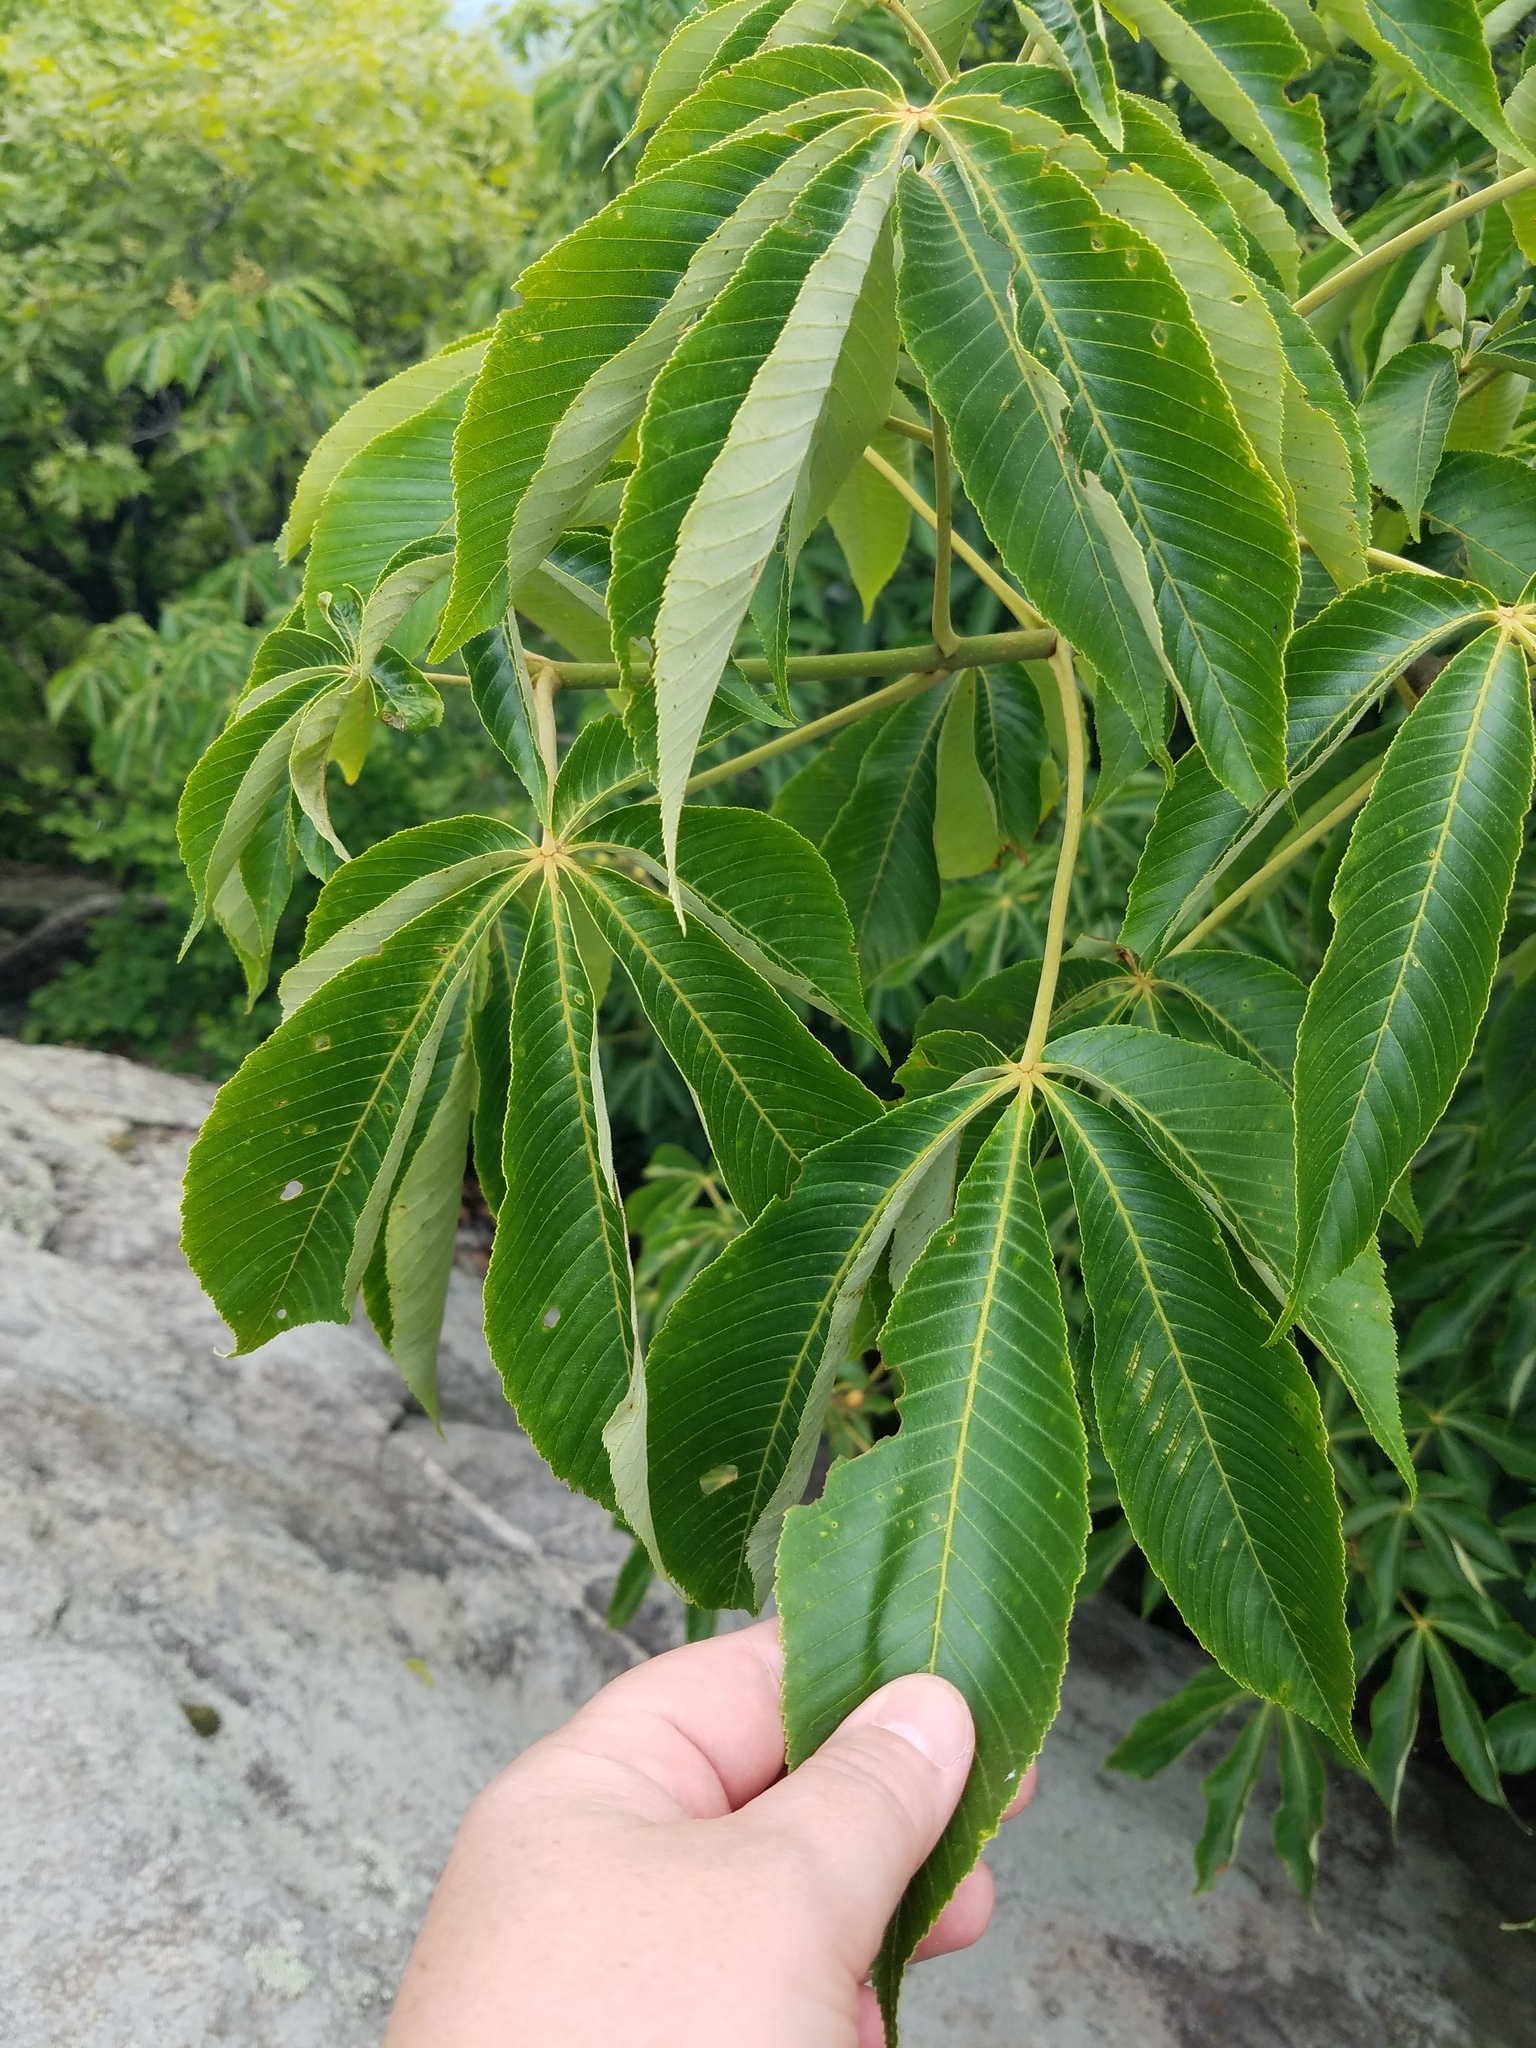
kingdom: Plantae
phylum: Tracheophyta
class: Magnoliopsida
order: Sapindales
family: Sapindaceae
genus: Aesculus
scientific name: Aesculus flava
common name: Yellow buckeye
